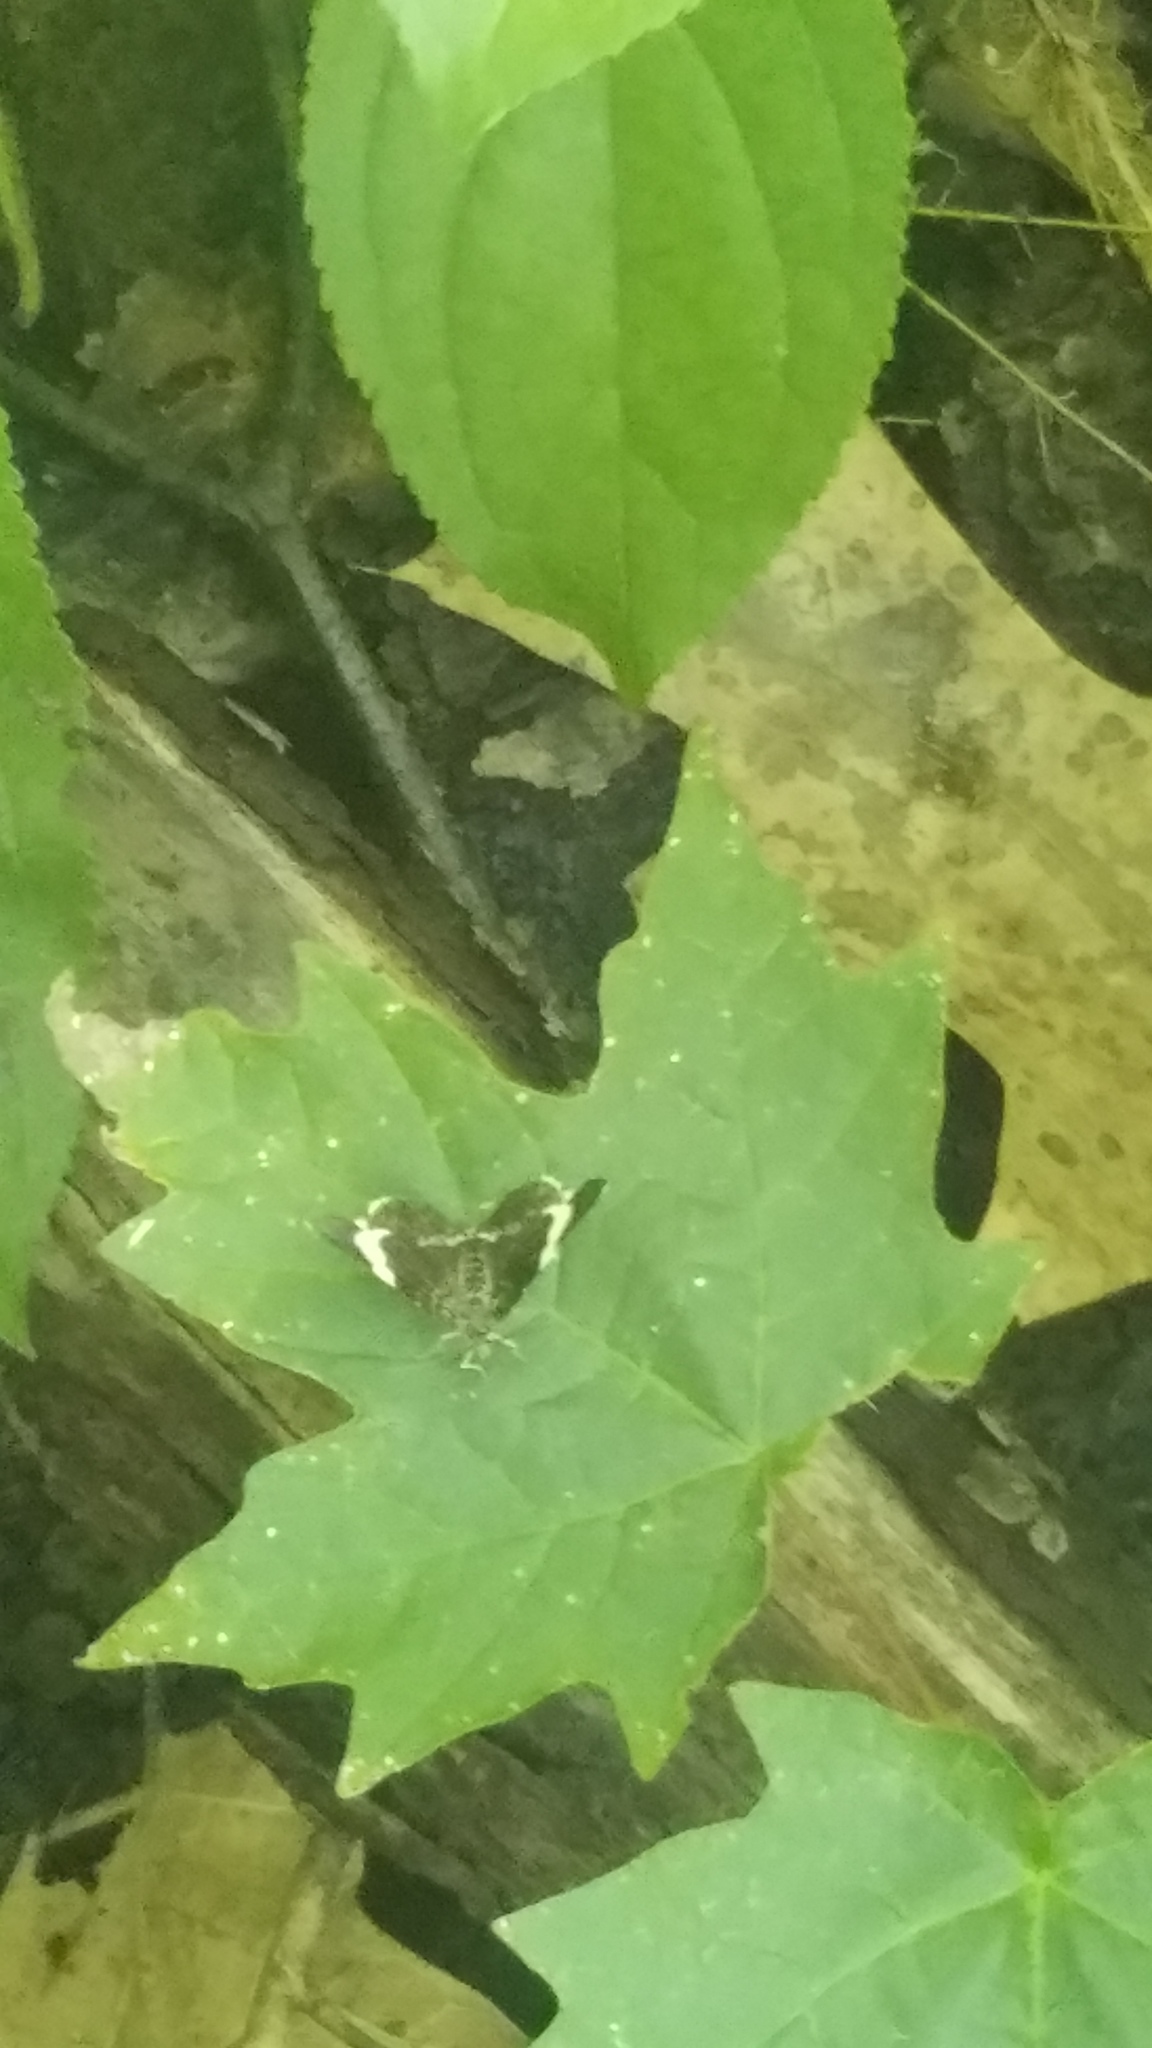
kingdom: Animalia
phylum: Arthropoda
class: Insecta
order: Lepidoptera
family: Geometridae
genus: Trichodezia
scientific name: Trichodezia albovittata
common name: White striped black
